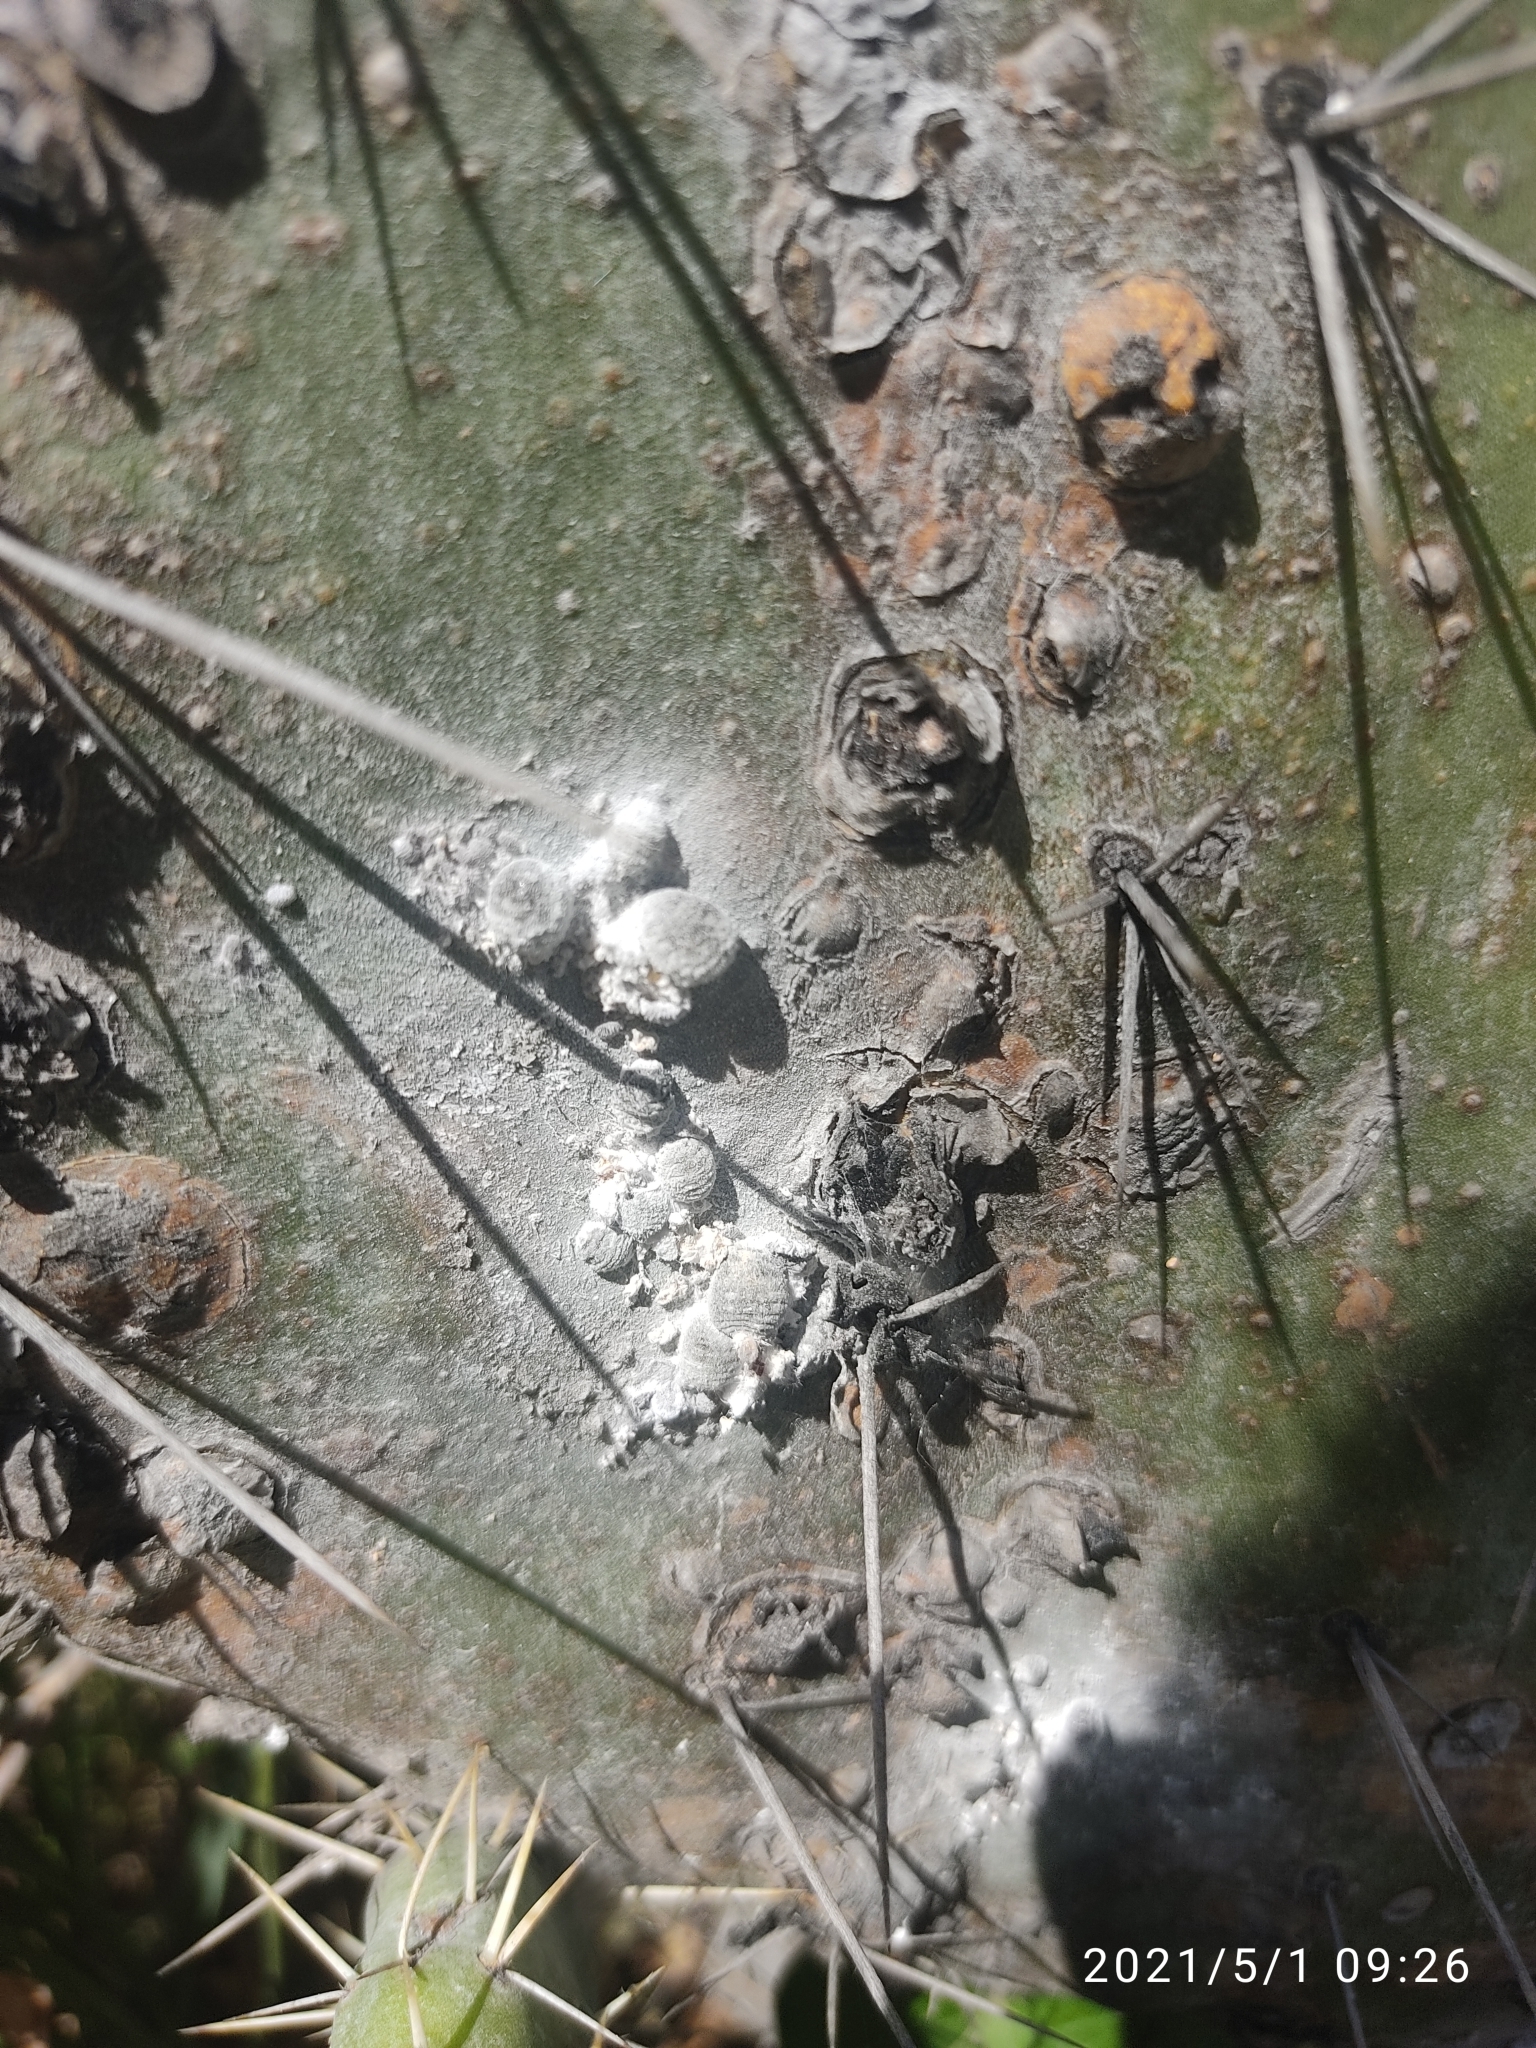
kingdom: Animalia
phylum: Arthropoda
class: Insecta
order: Hemiptera
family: Dactylopiidae
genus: Dactylopius
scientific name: Dactylopius coccus
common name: Cochineal
